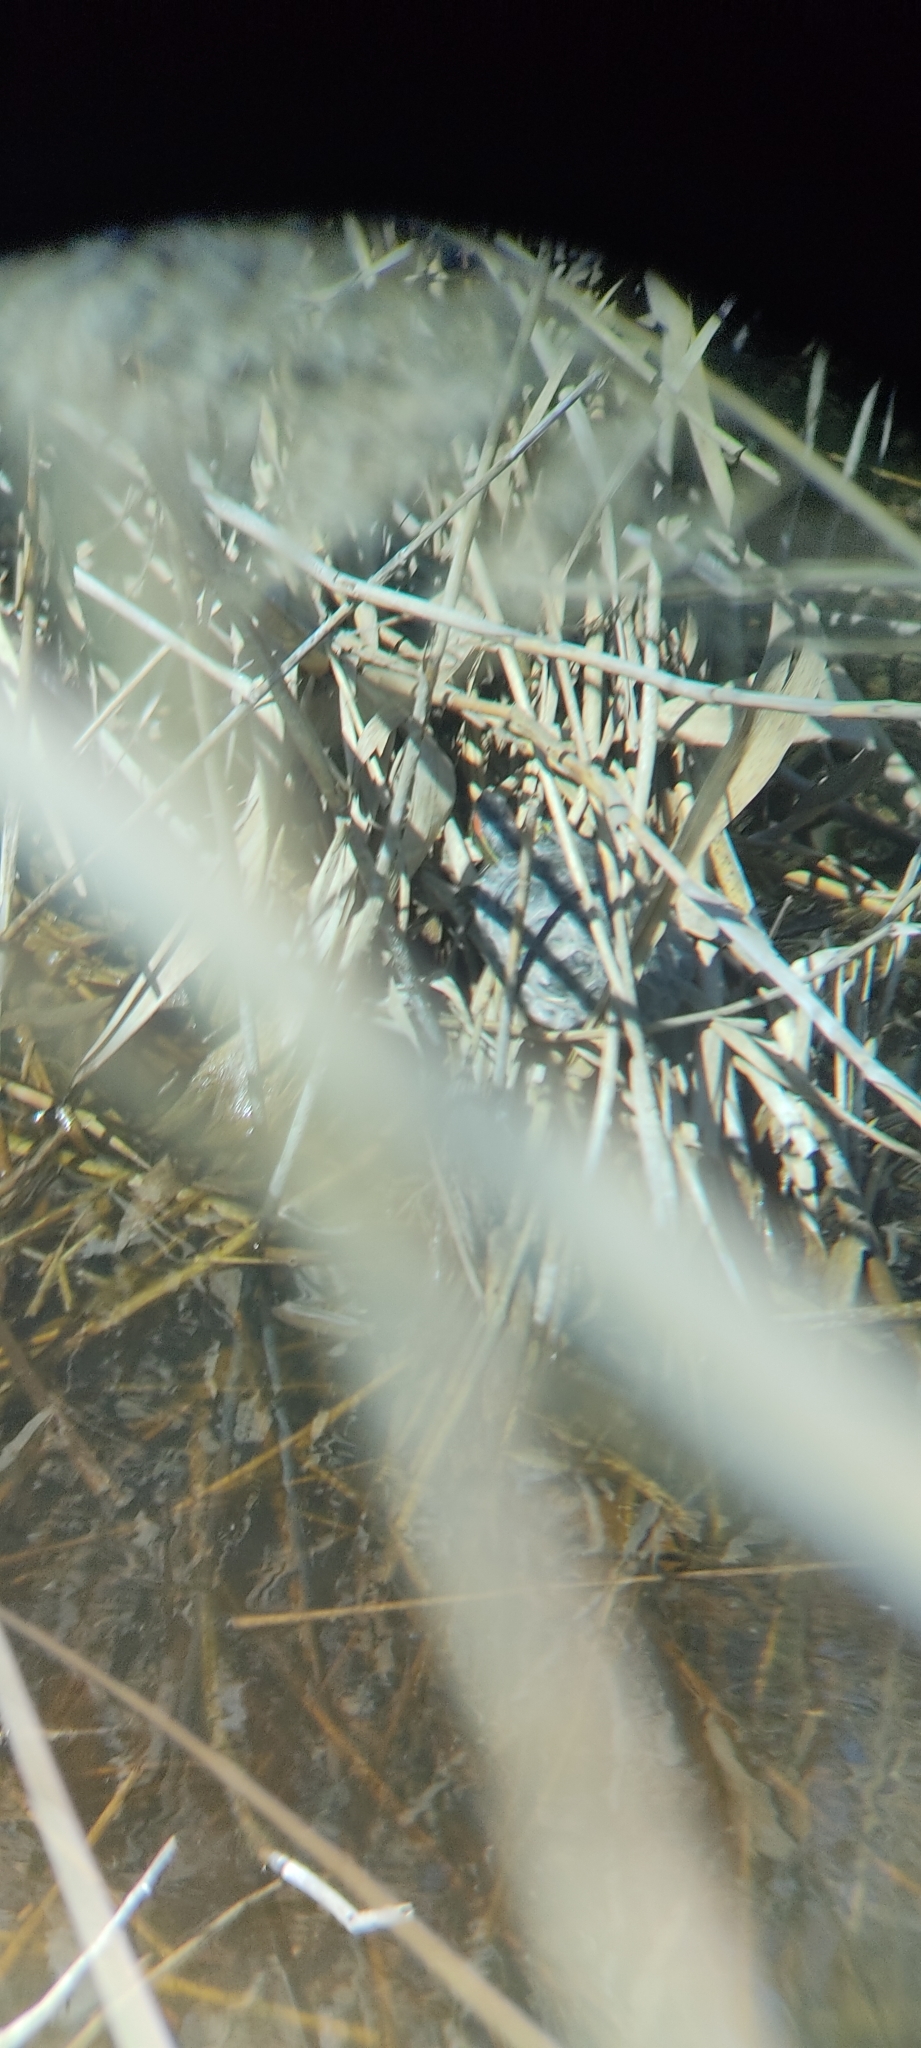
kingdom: Animalia
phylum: Chordata
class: Testudines
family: Emydidae
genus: Trachemys
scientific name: Trachemys scripta
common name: Slider
